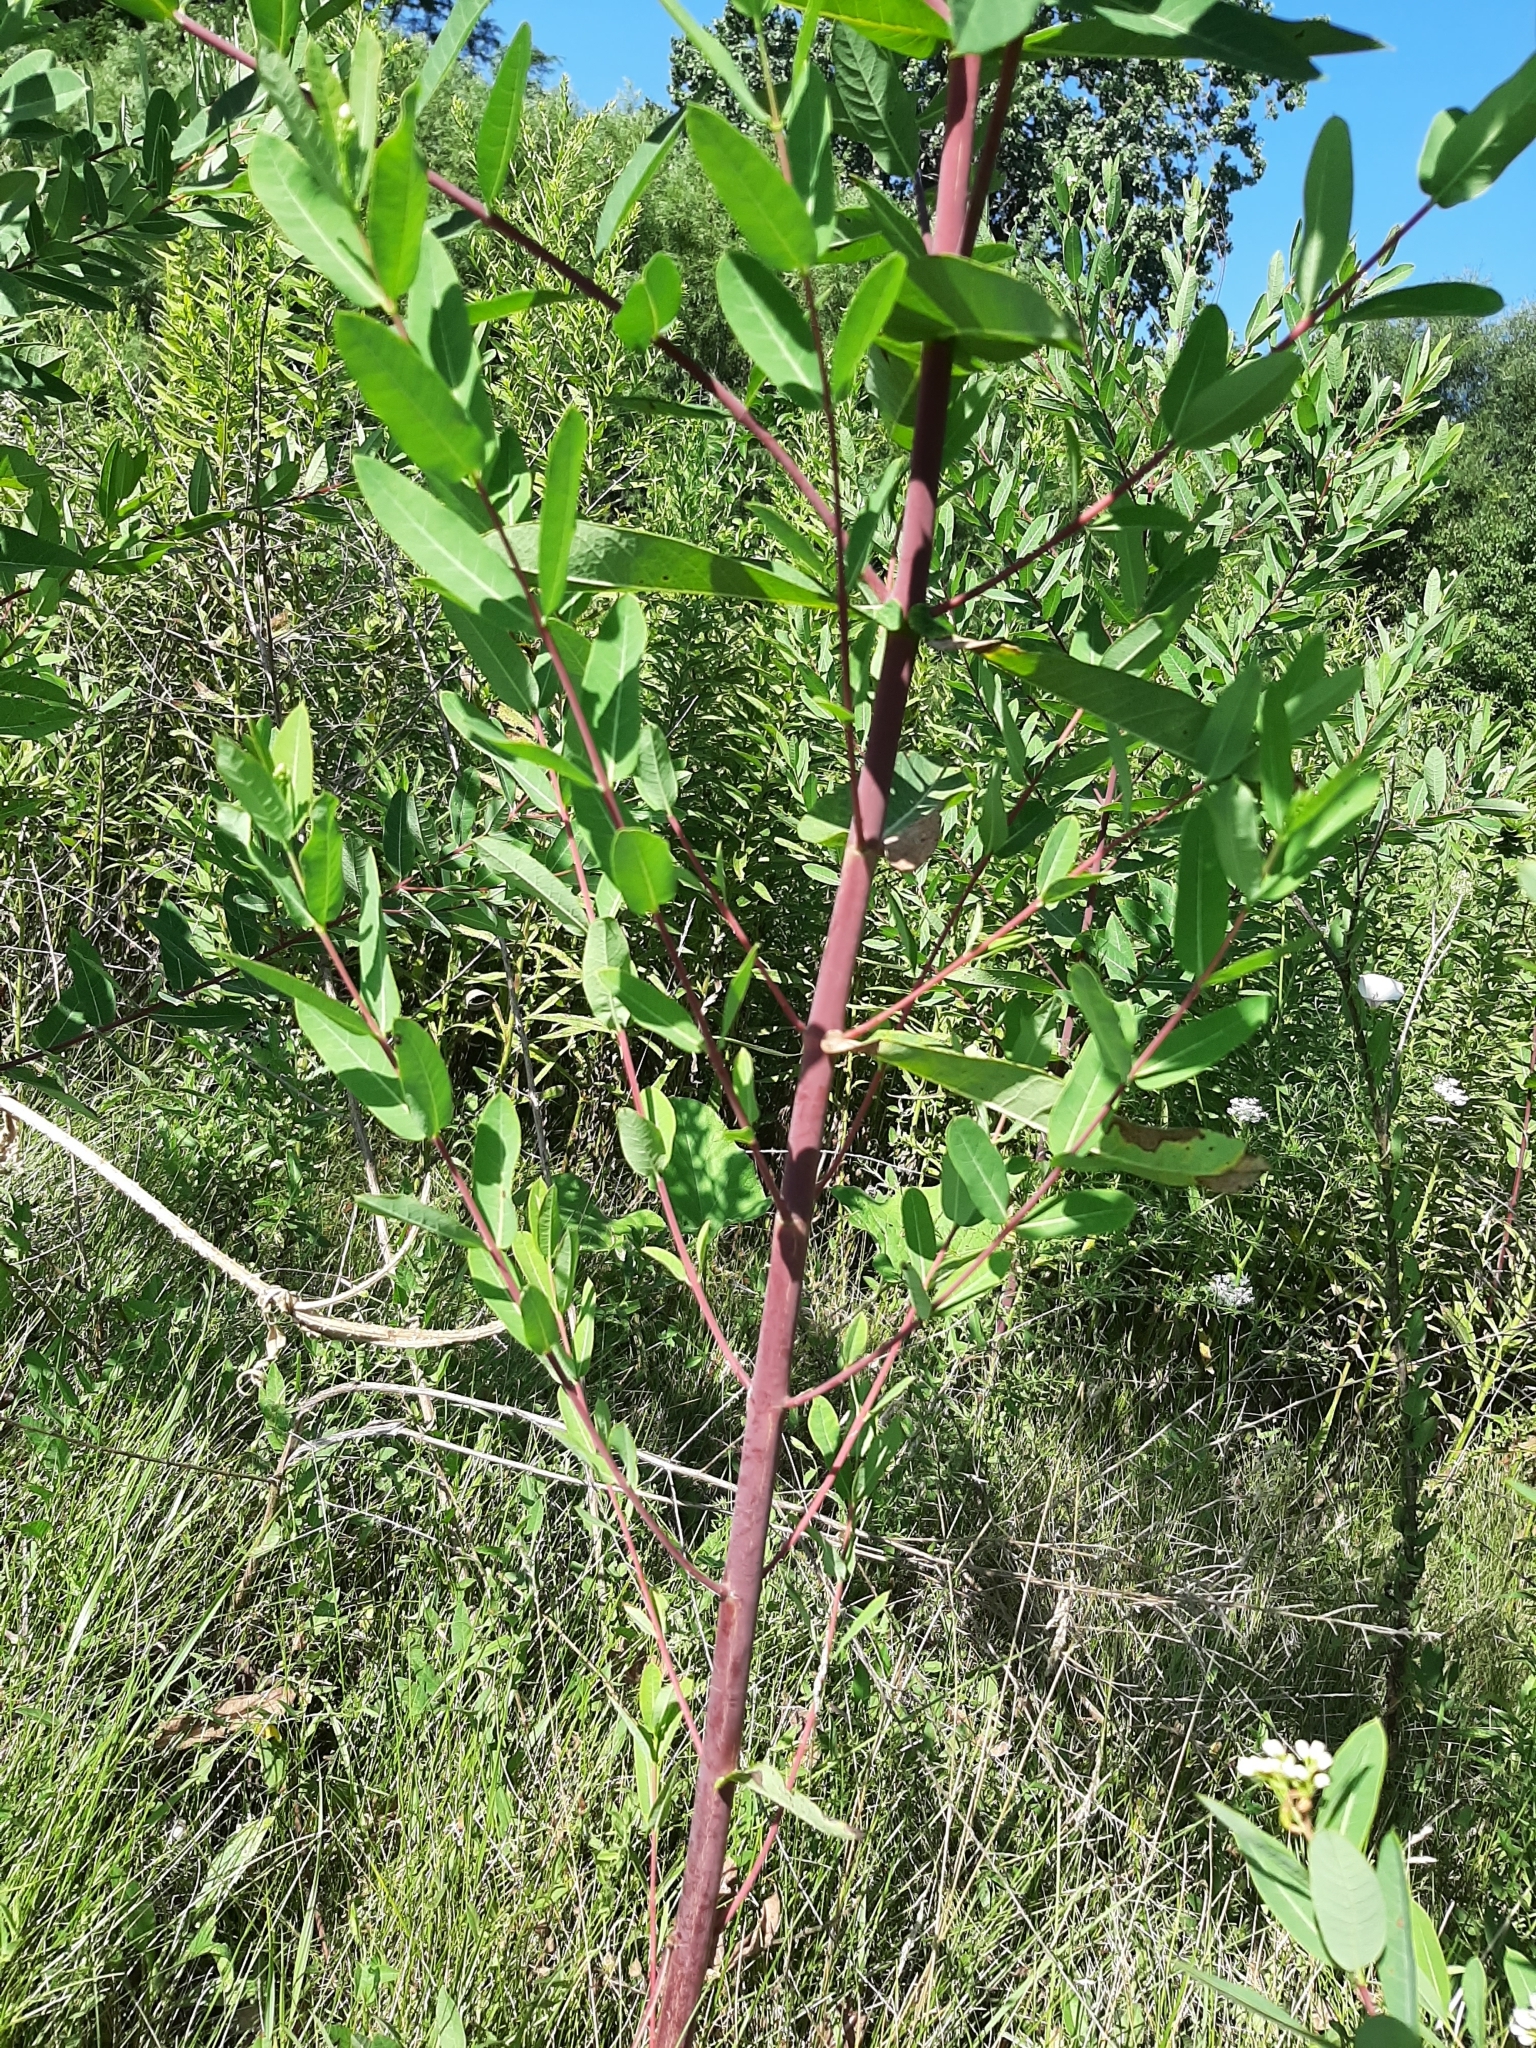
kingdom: Plantae
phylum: Tracheophyta
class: Magnoliopsida
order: Gentianales
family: Apocynaceae
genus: Apocynum
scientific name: Apocynum cannabinum
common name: Hemp dogbane
